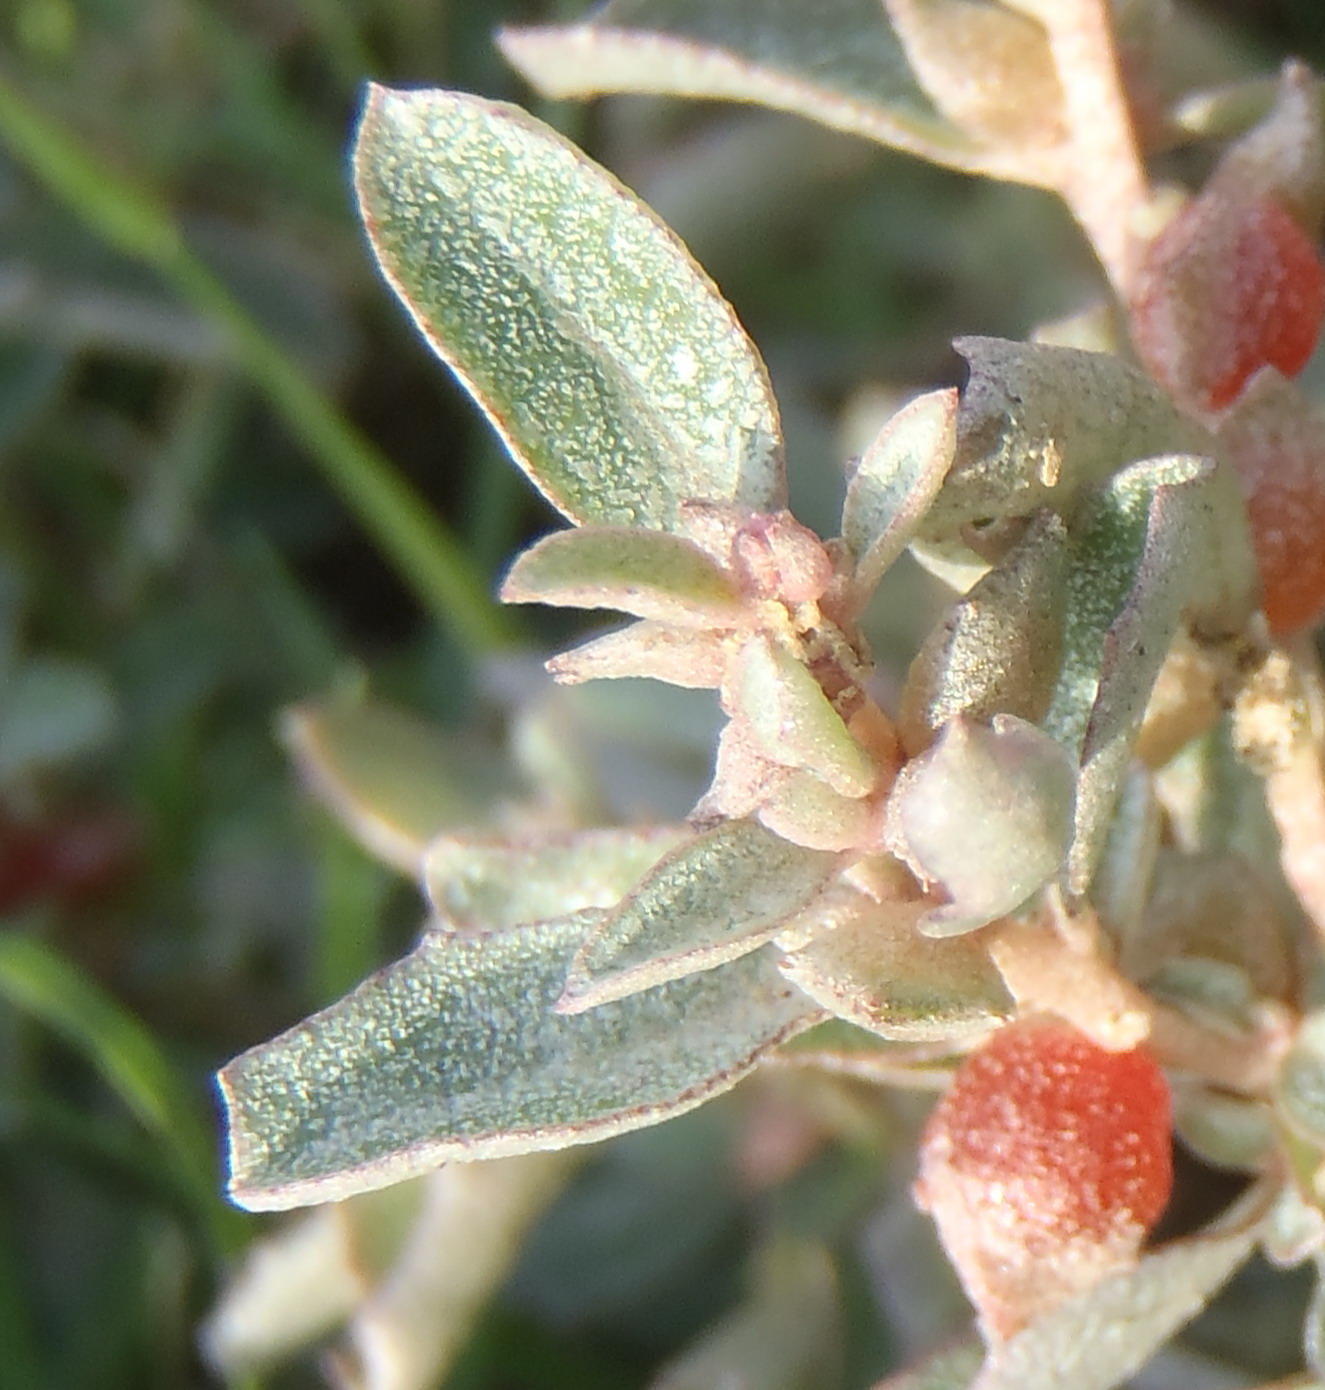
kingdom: Plantae
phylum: Tracheophyta
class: Magnoliopsida
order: Caryophyllales
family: Amaranthaceae
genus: Atriplex
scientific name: Atriplex semibaccata
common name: Australian saltbush
